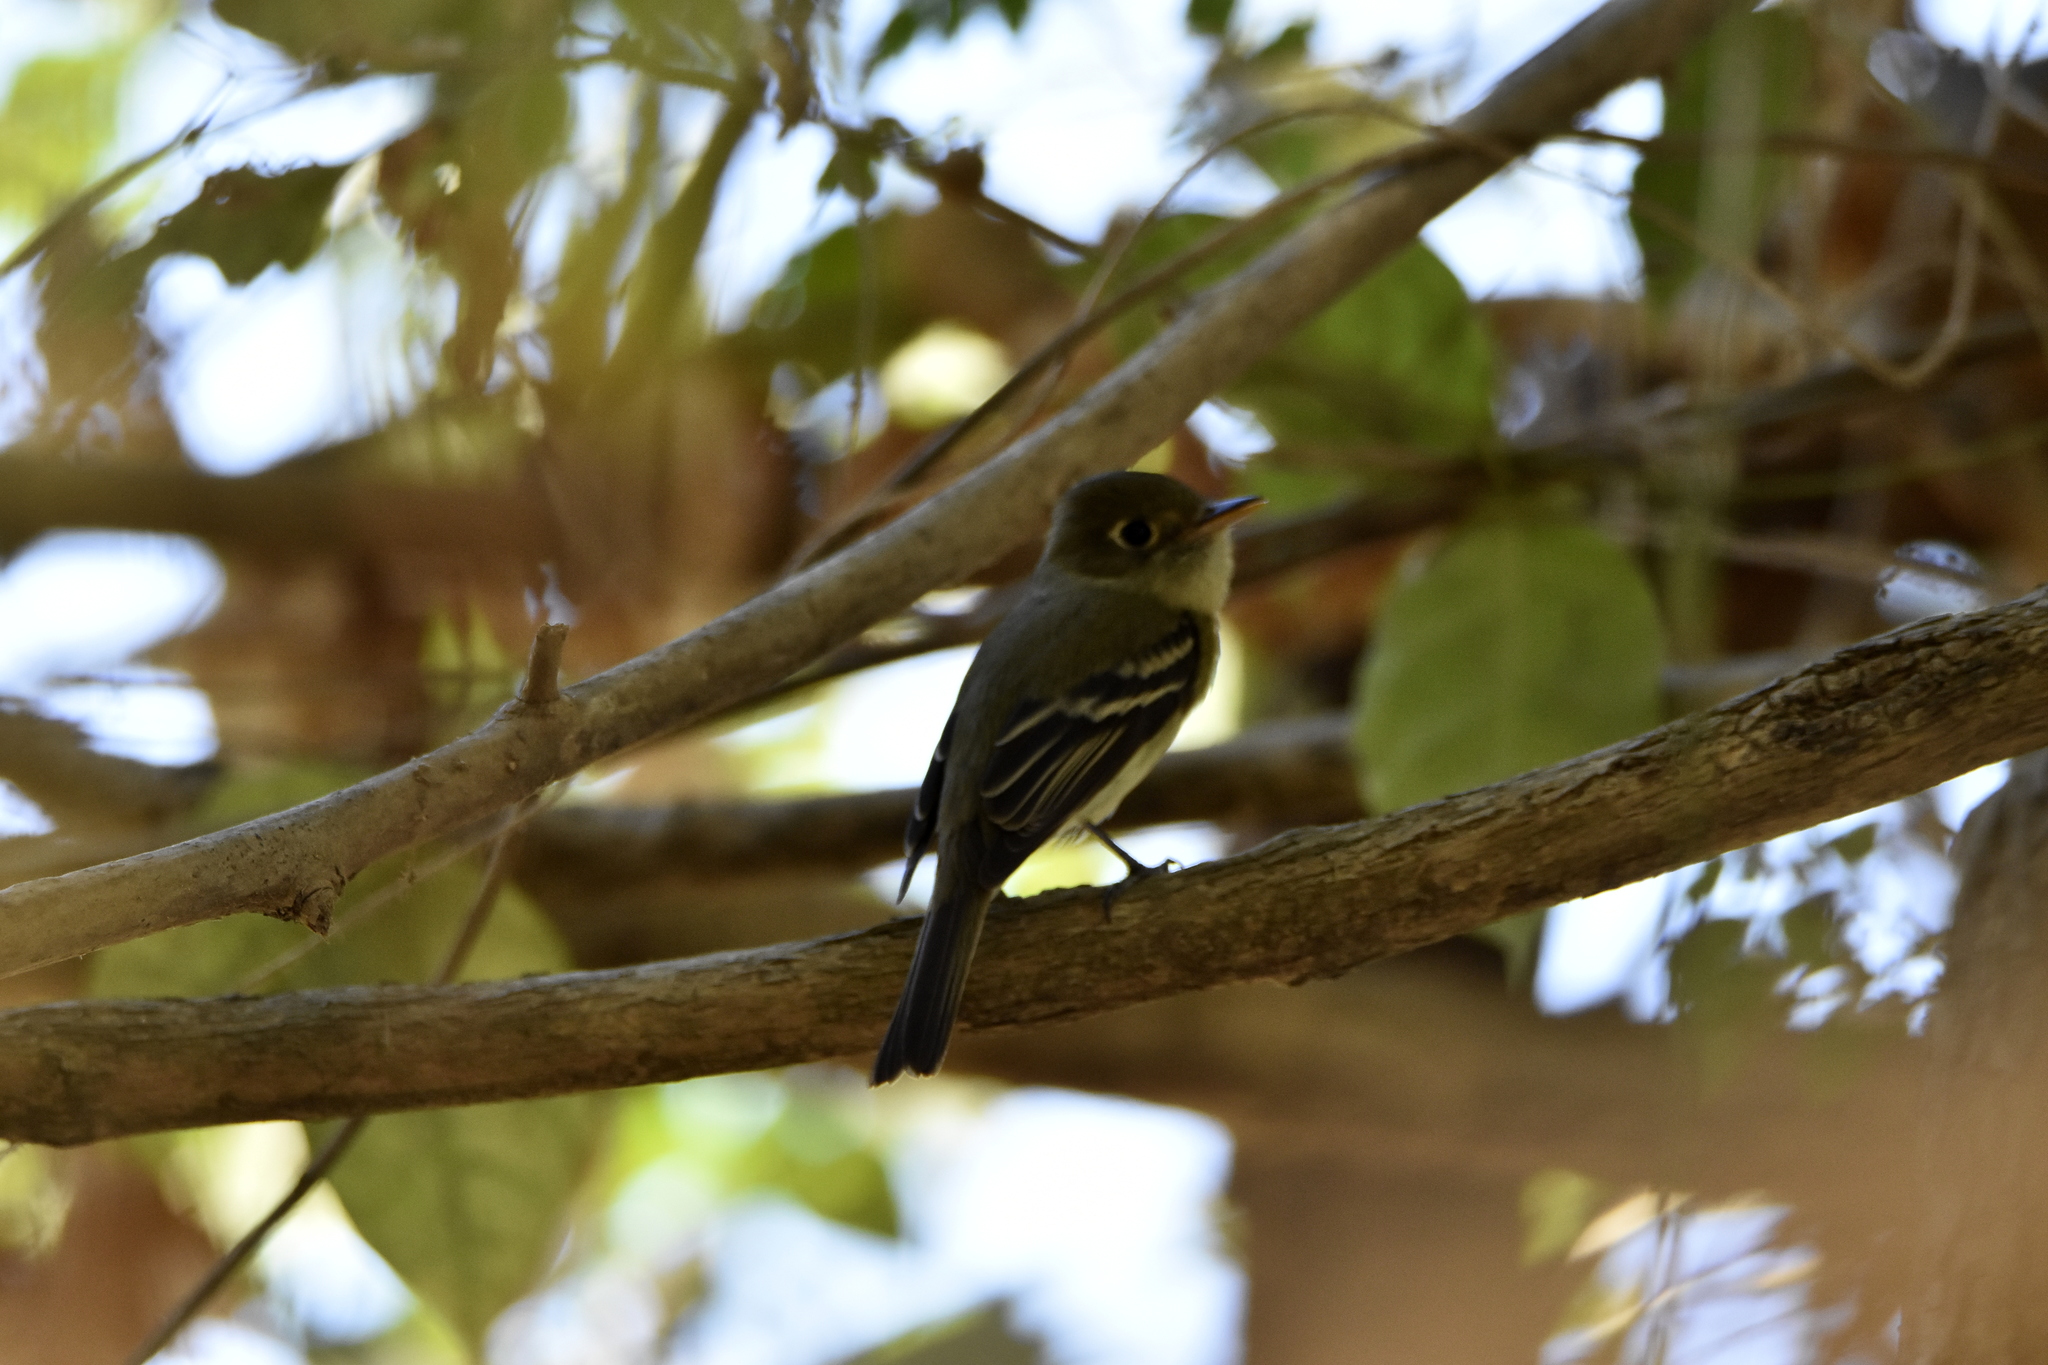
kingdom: Animalia
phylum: Chordata
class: Aves
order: Passeriformes
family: Tyrannidae
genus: Empidonax
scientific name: Empidonax difficilis
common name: Pacific-slope flycatcher
